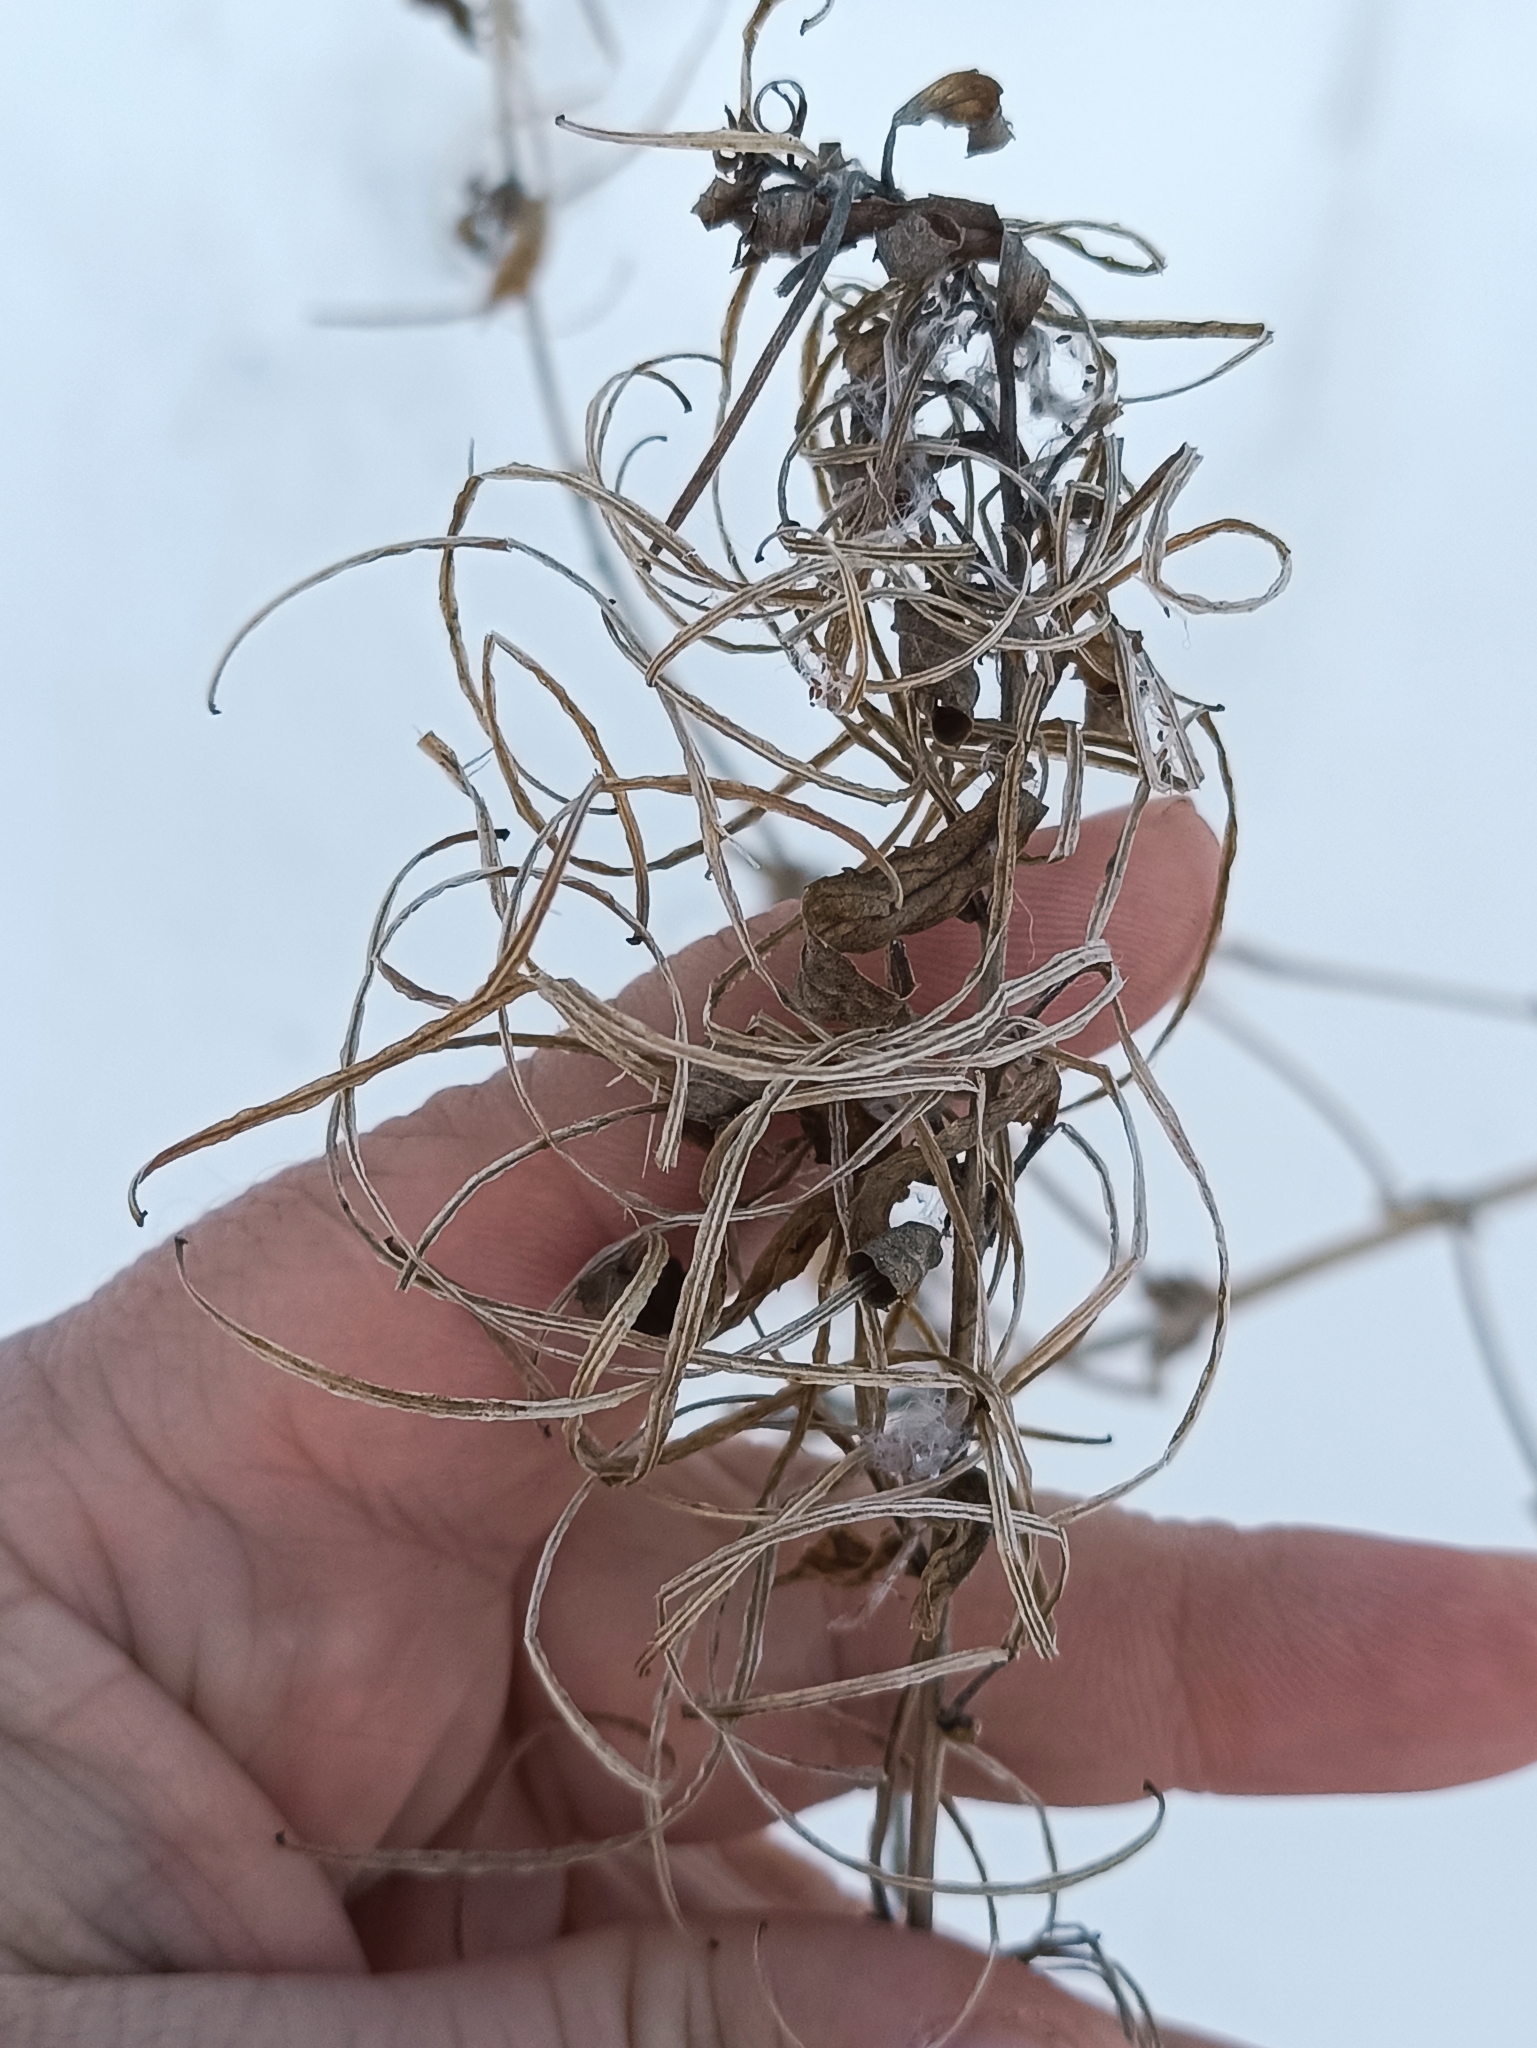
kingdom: Plantae
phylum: Tracheophyta
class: Magnoliopsida
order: Myrtales
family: Onagraceae
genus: Chamaenerion
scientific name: Chamaenerion angustifolium
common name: Fireweed
